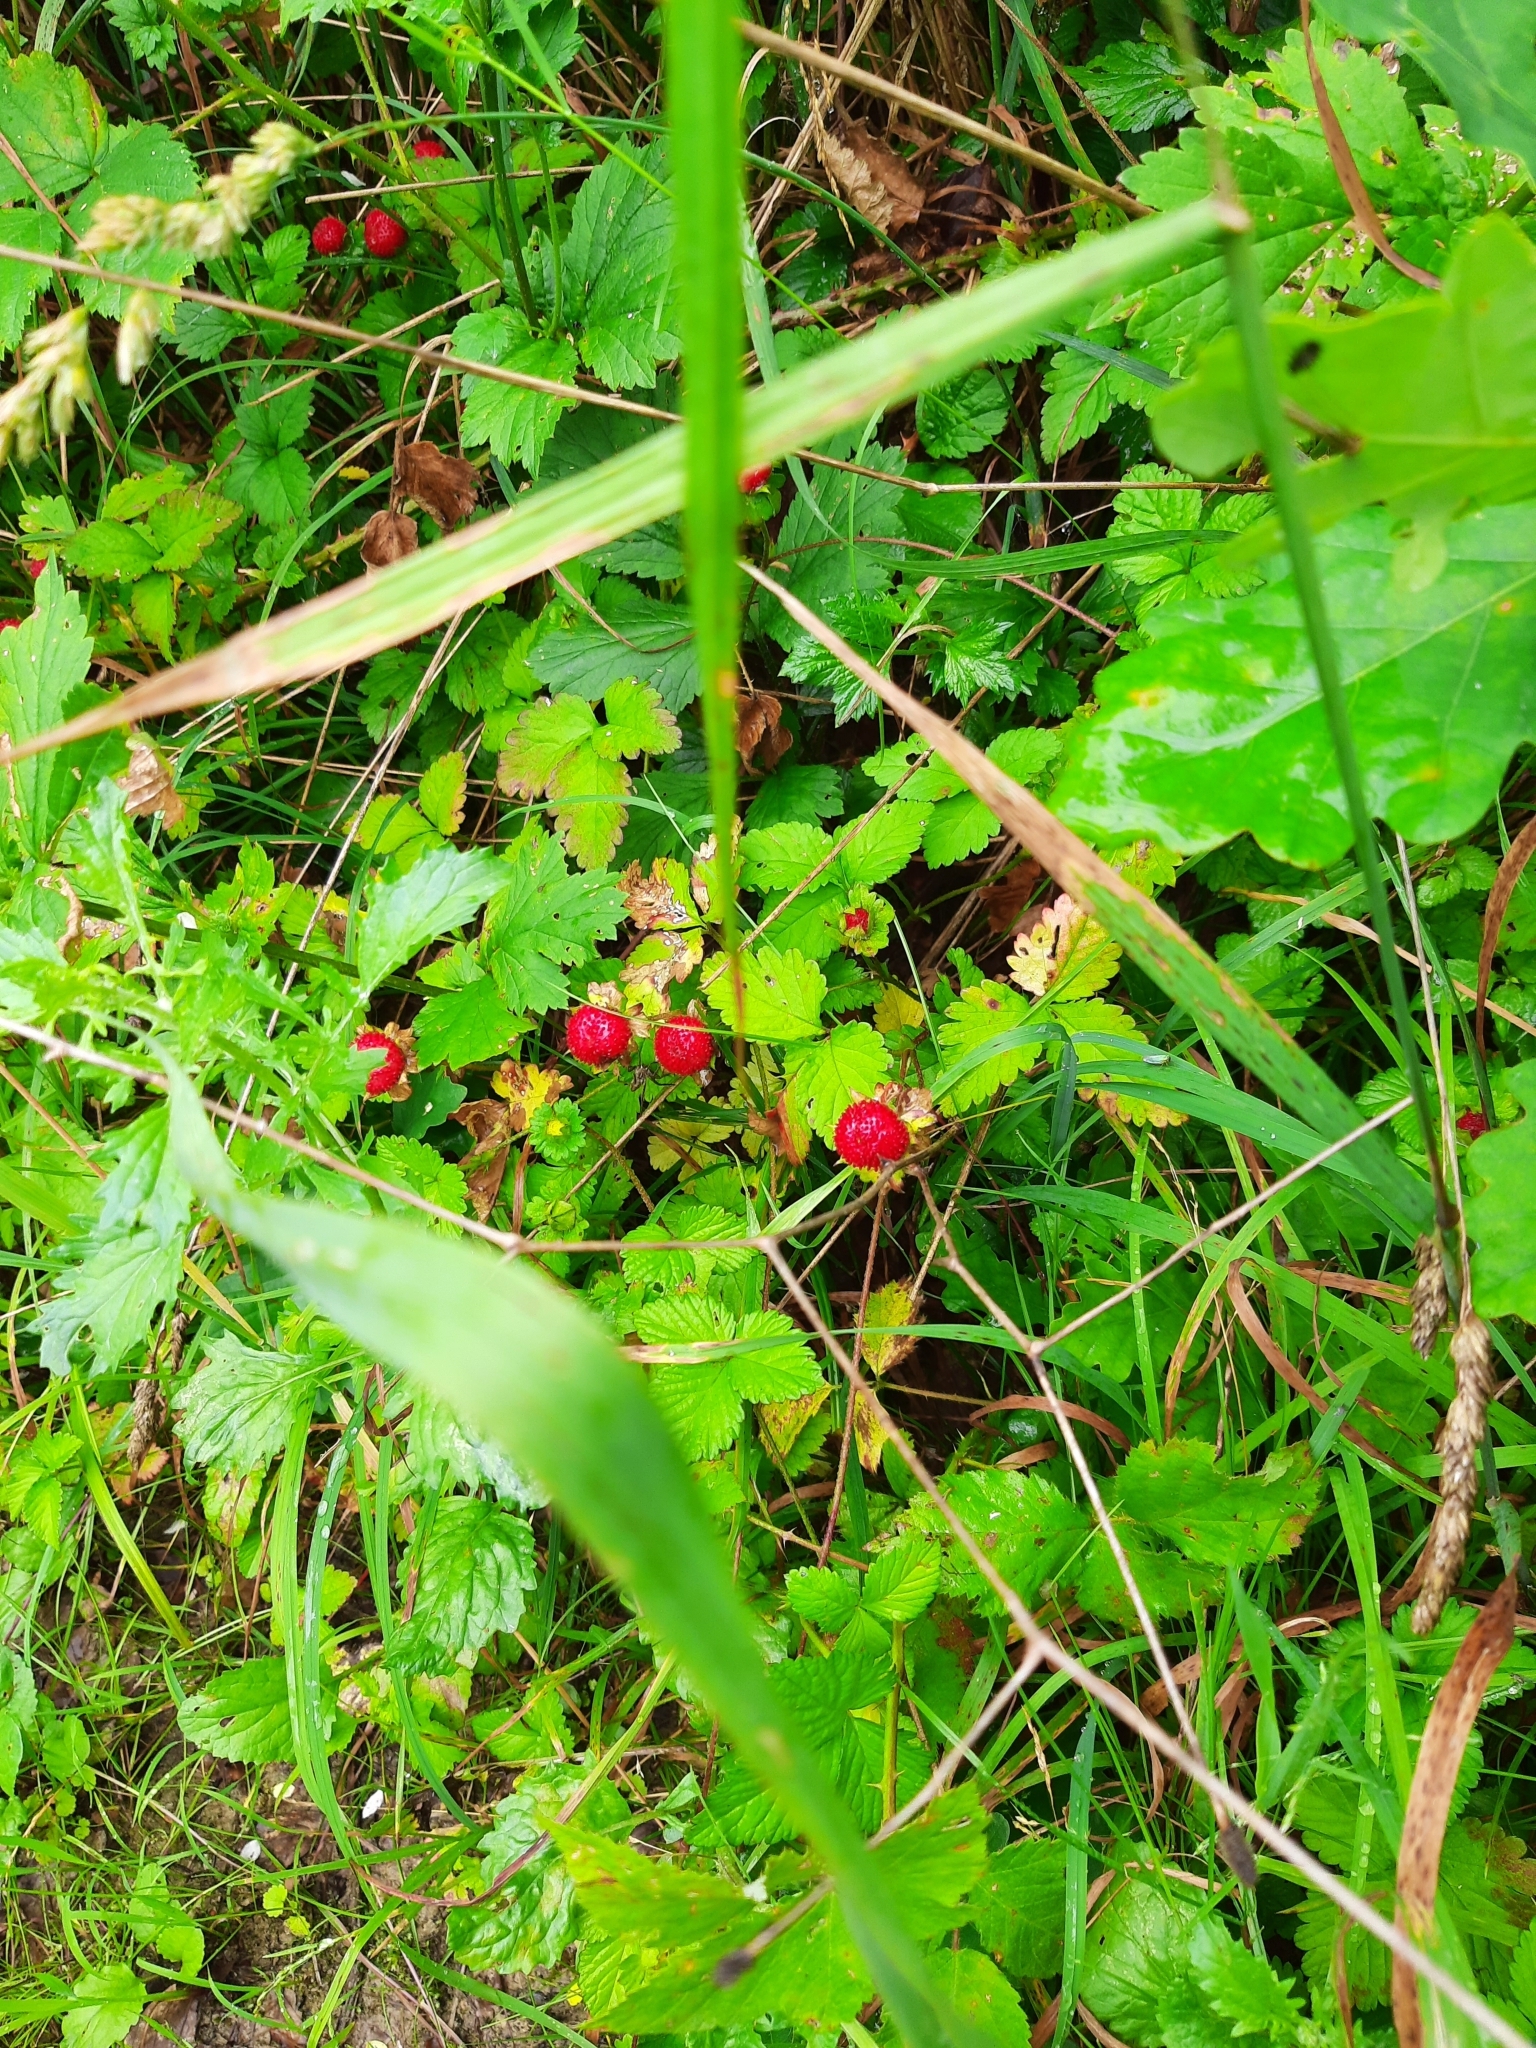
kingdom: Plantae
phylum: Tracheophyta
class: Magnoliopsida
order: Rosales
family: Rosaceae
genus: Potentilla
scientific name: Potentilla indica
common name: Yellow-flowered strawberry
